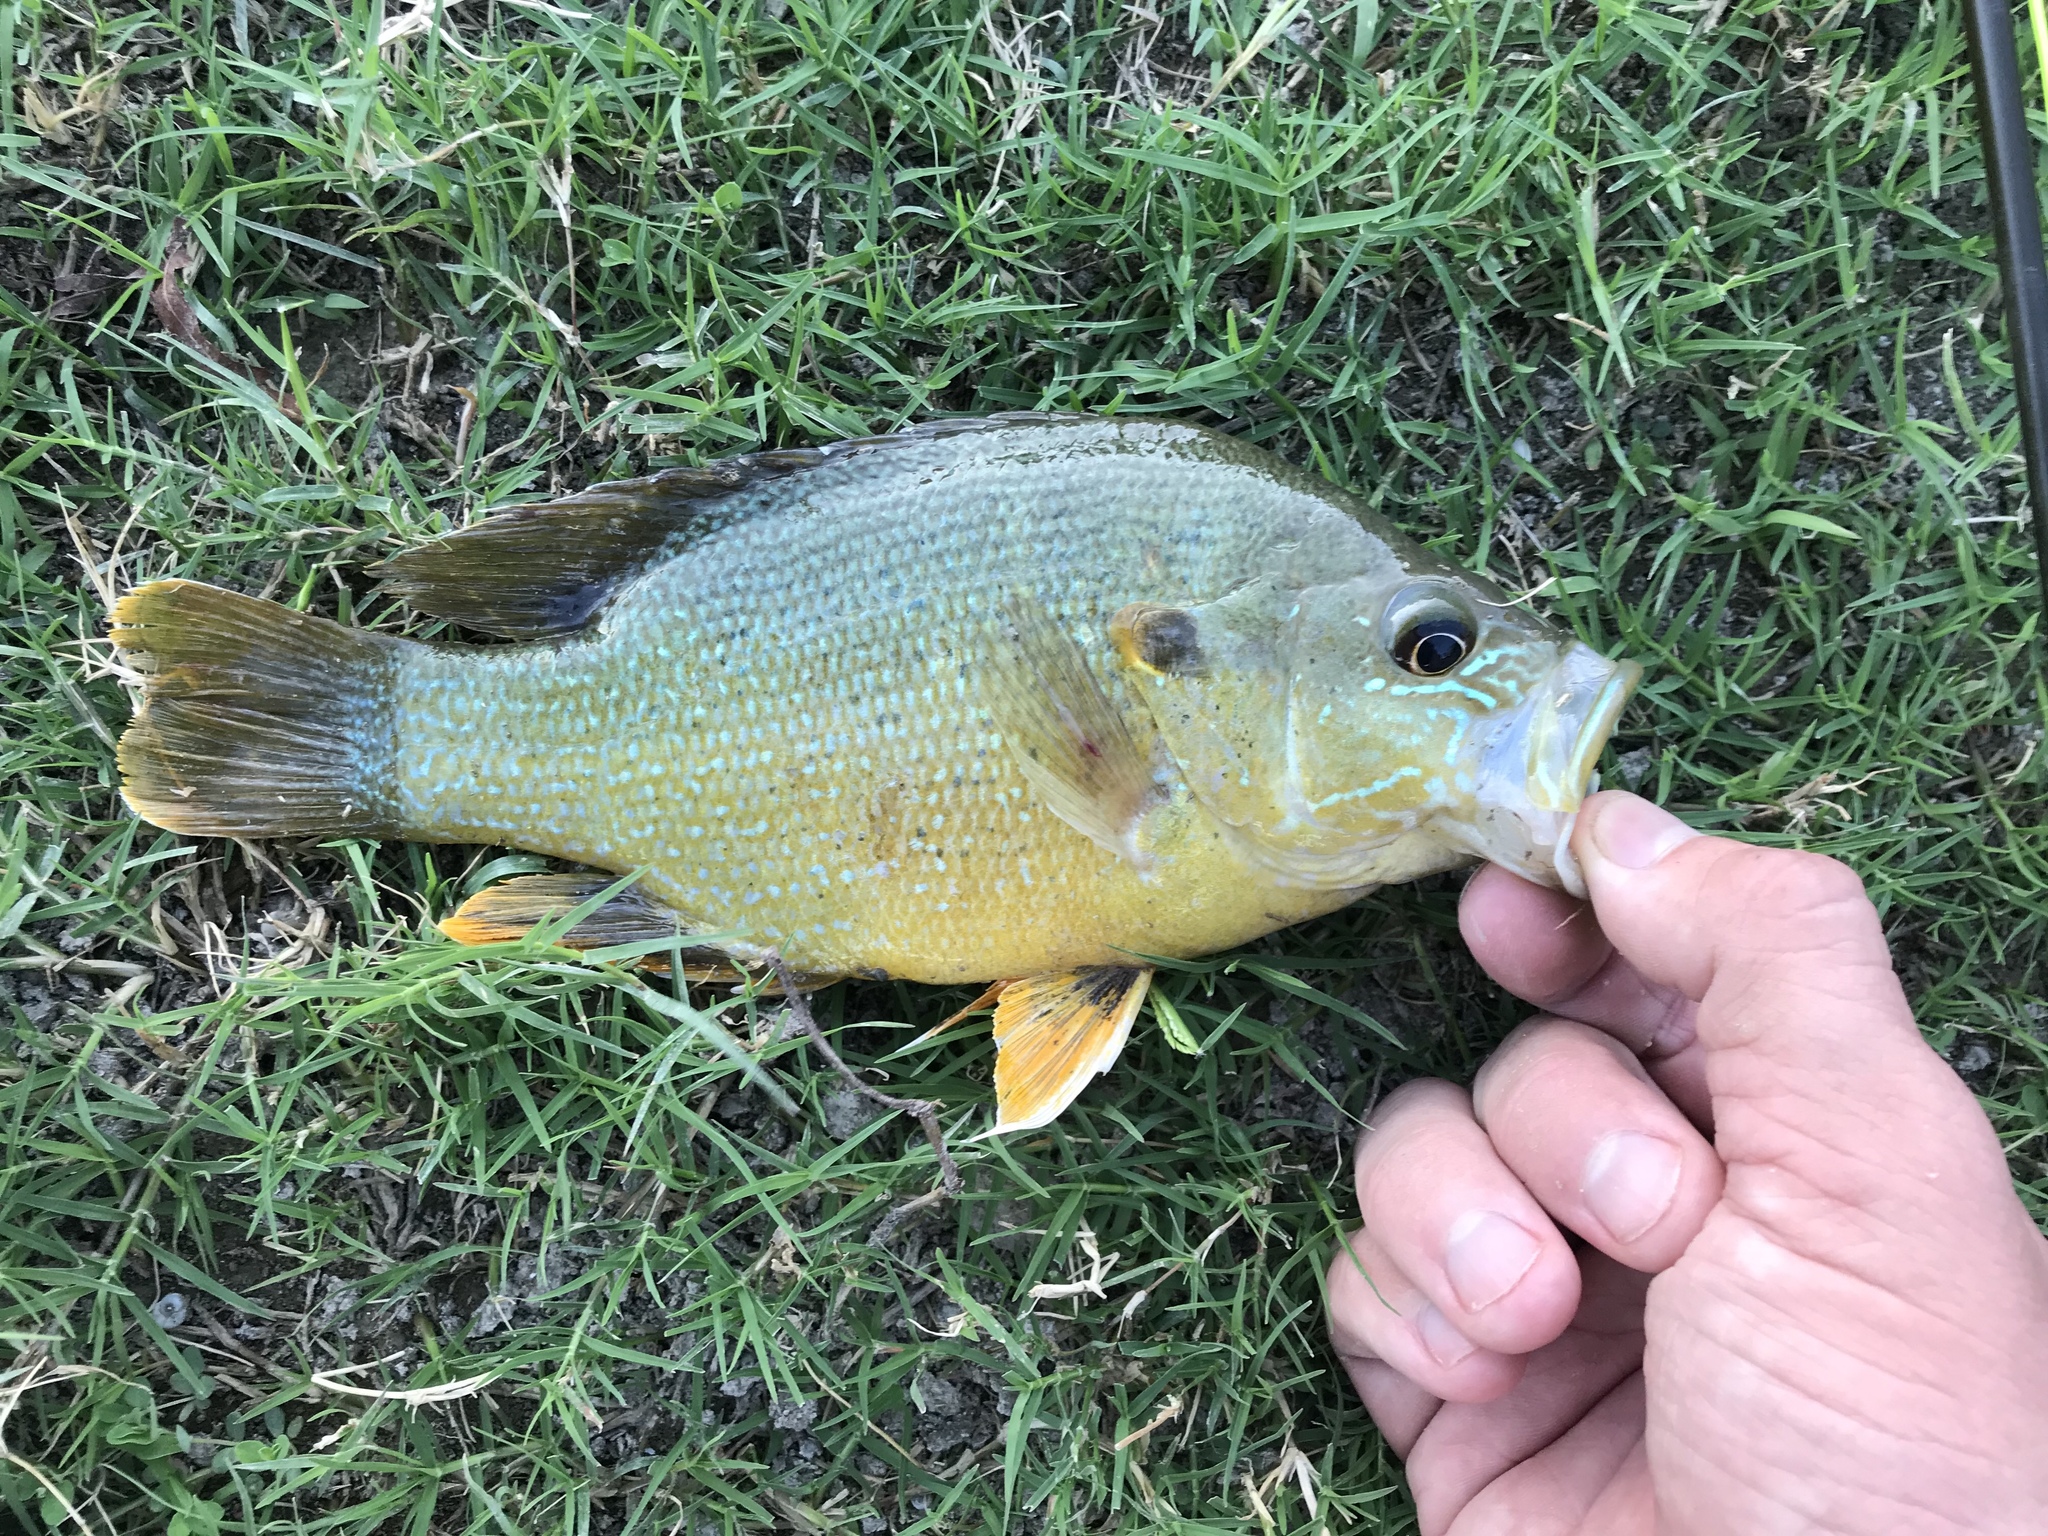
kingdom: Animalia
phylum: Chordata
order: Perciformes
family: Centrarchidae
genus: Lepomis
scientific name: Lepomis cyanellus
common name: Green sunfish
